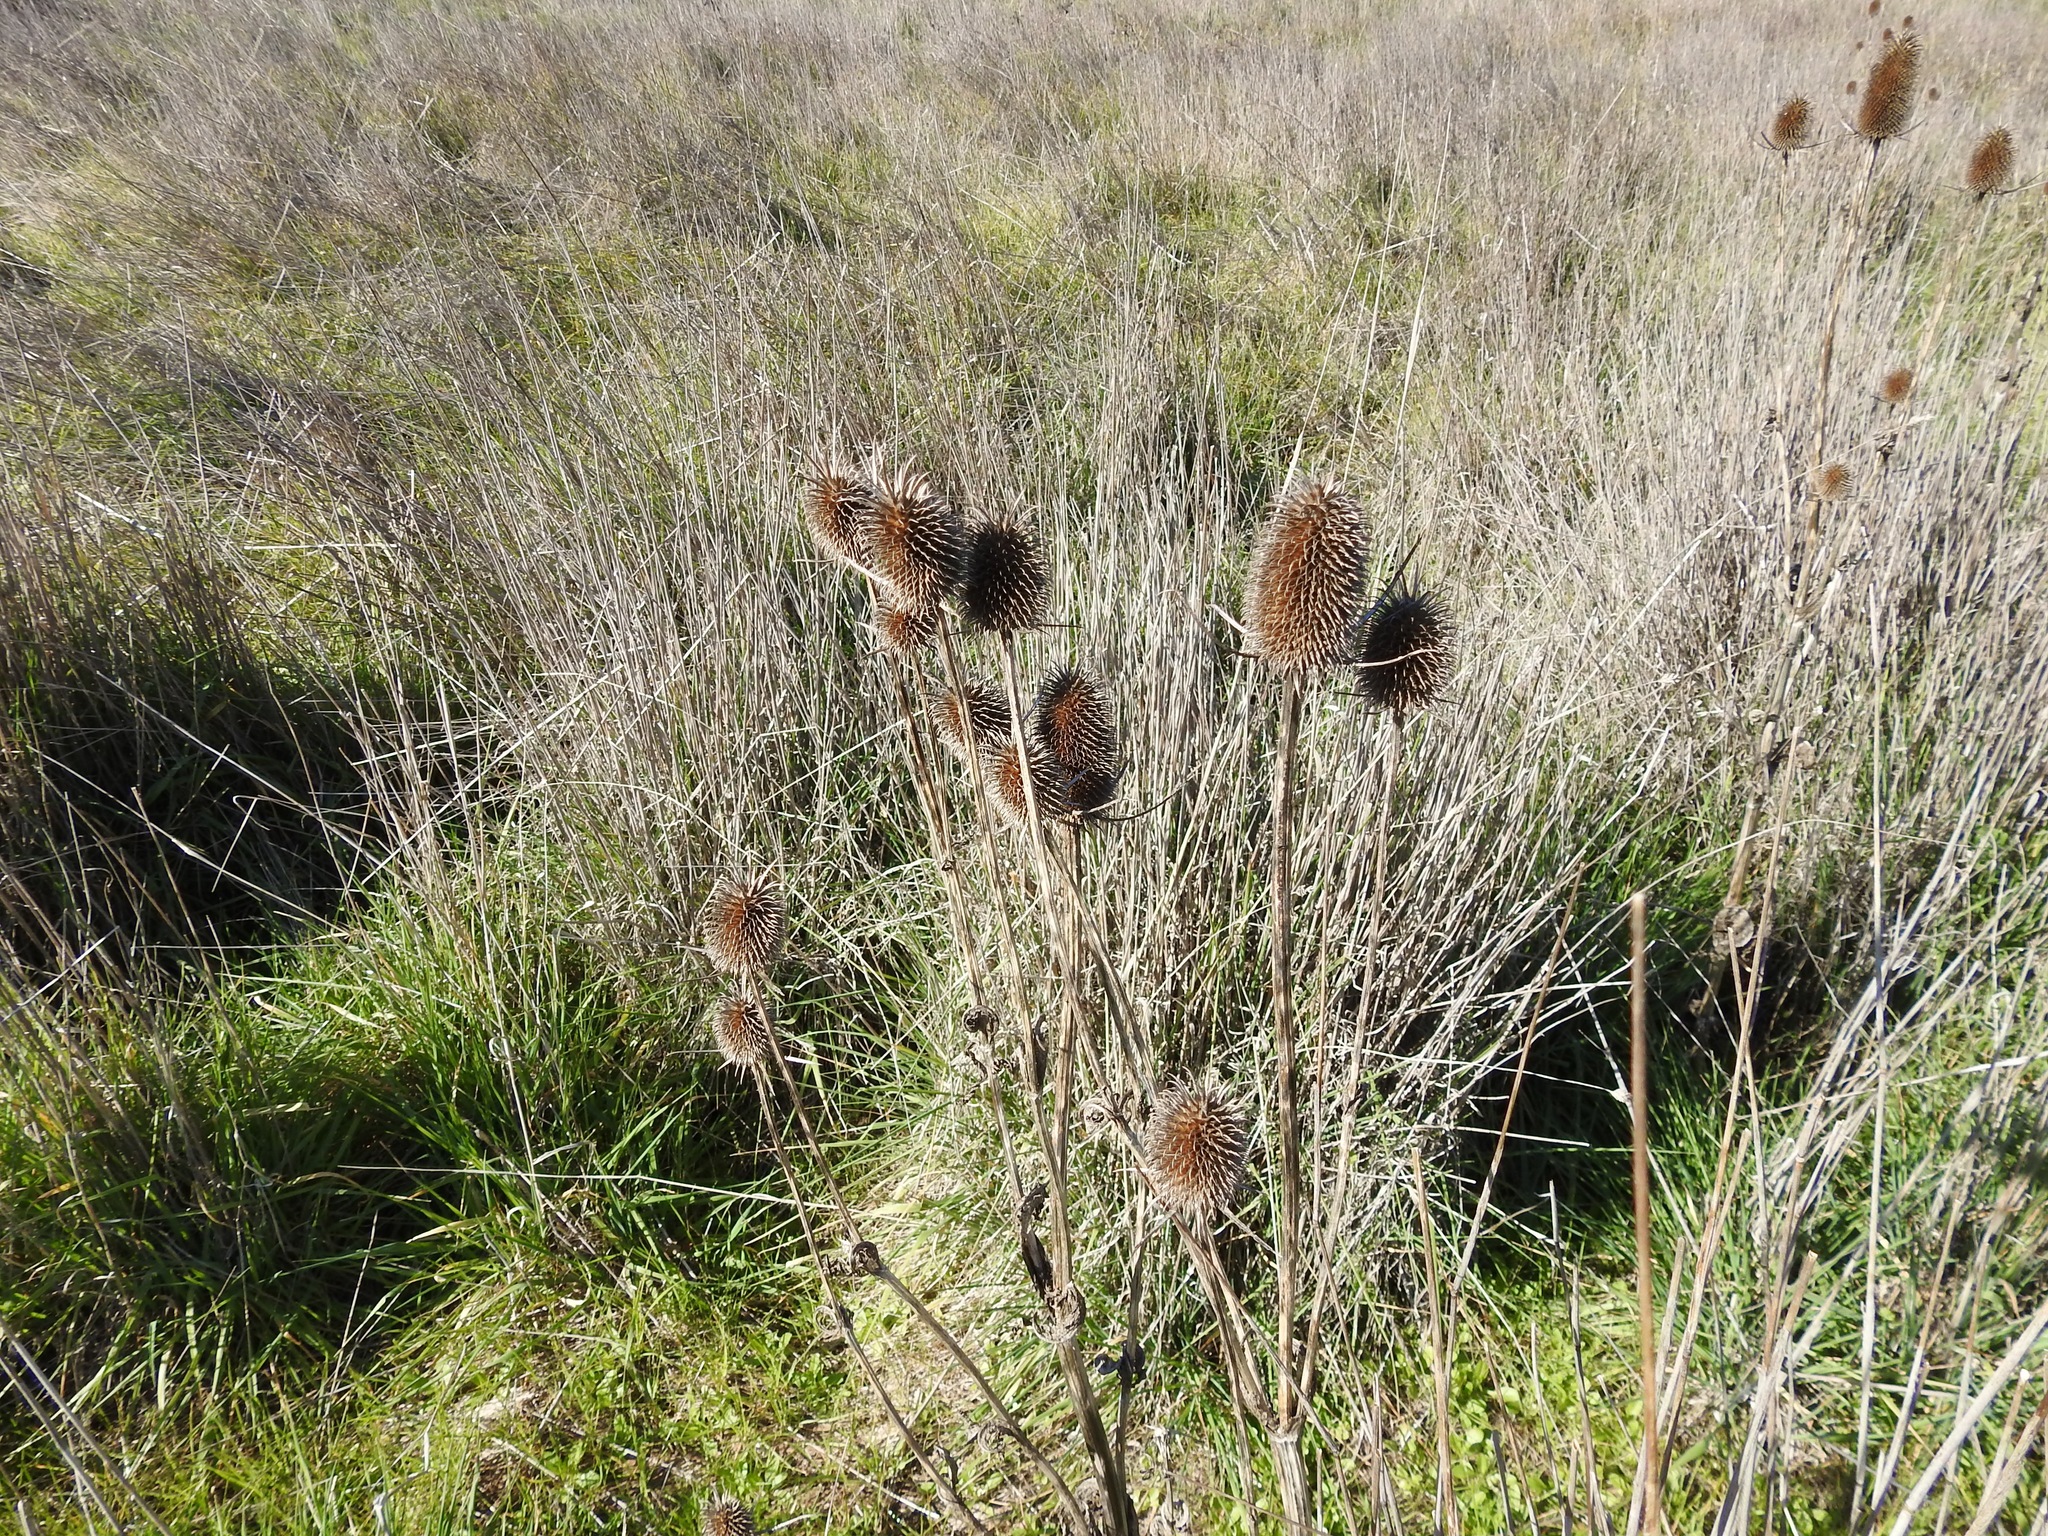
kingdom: Plantae
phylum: Tracheophyta
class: Magnoliopsida
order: Dipsacales
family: Caprifoliaceae
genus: Dipsacus
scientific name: Dipsacus sativus
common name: Fuller's teasel
